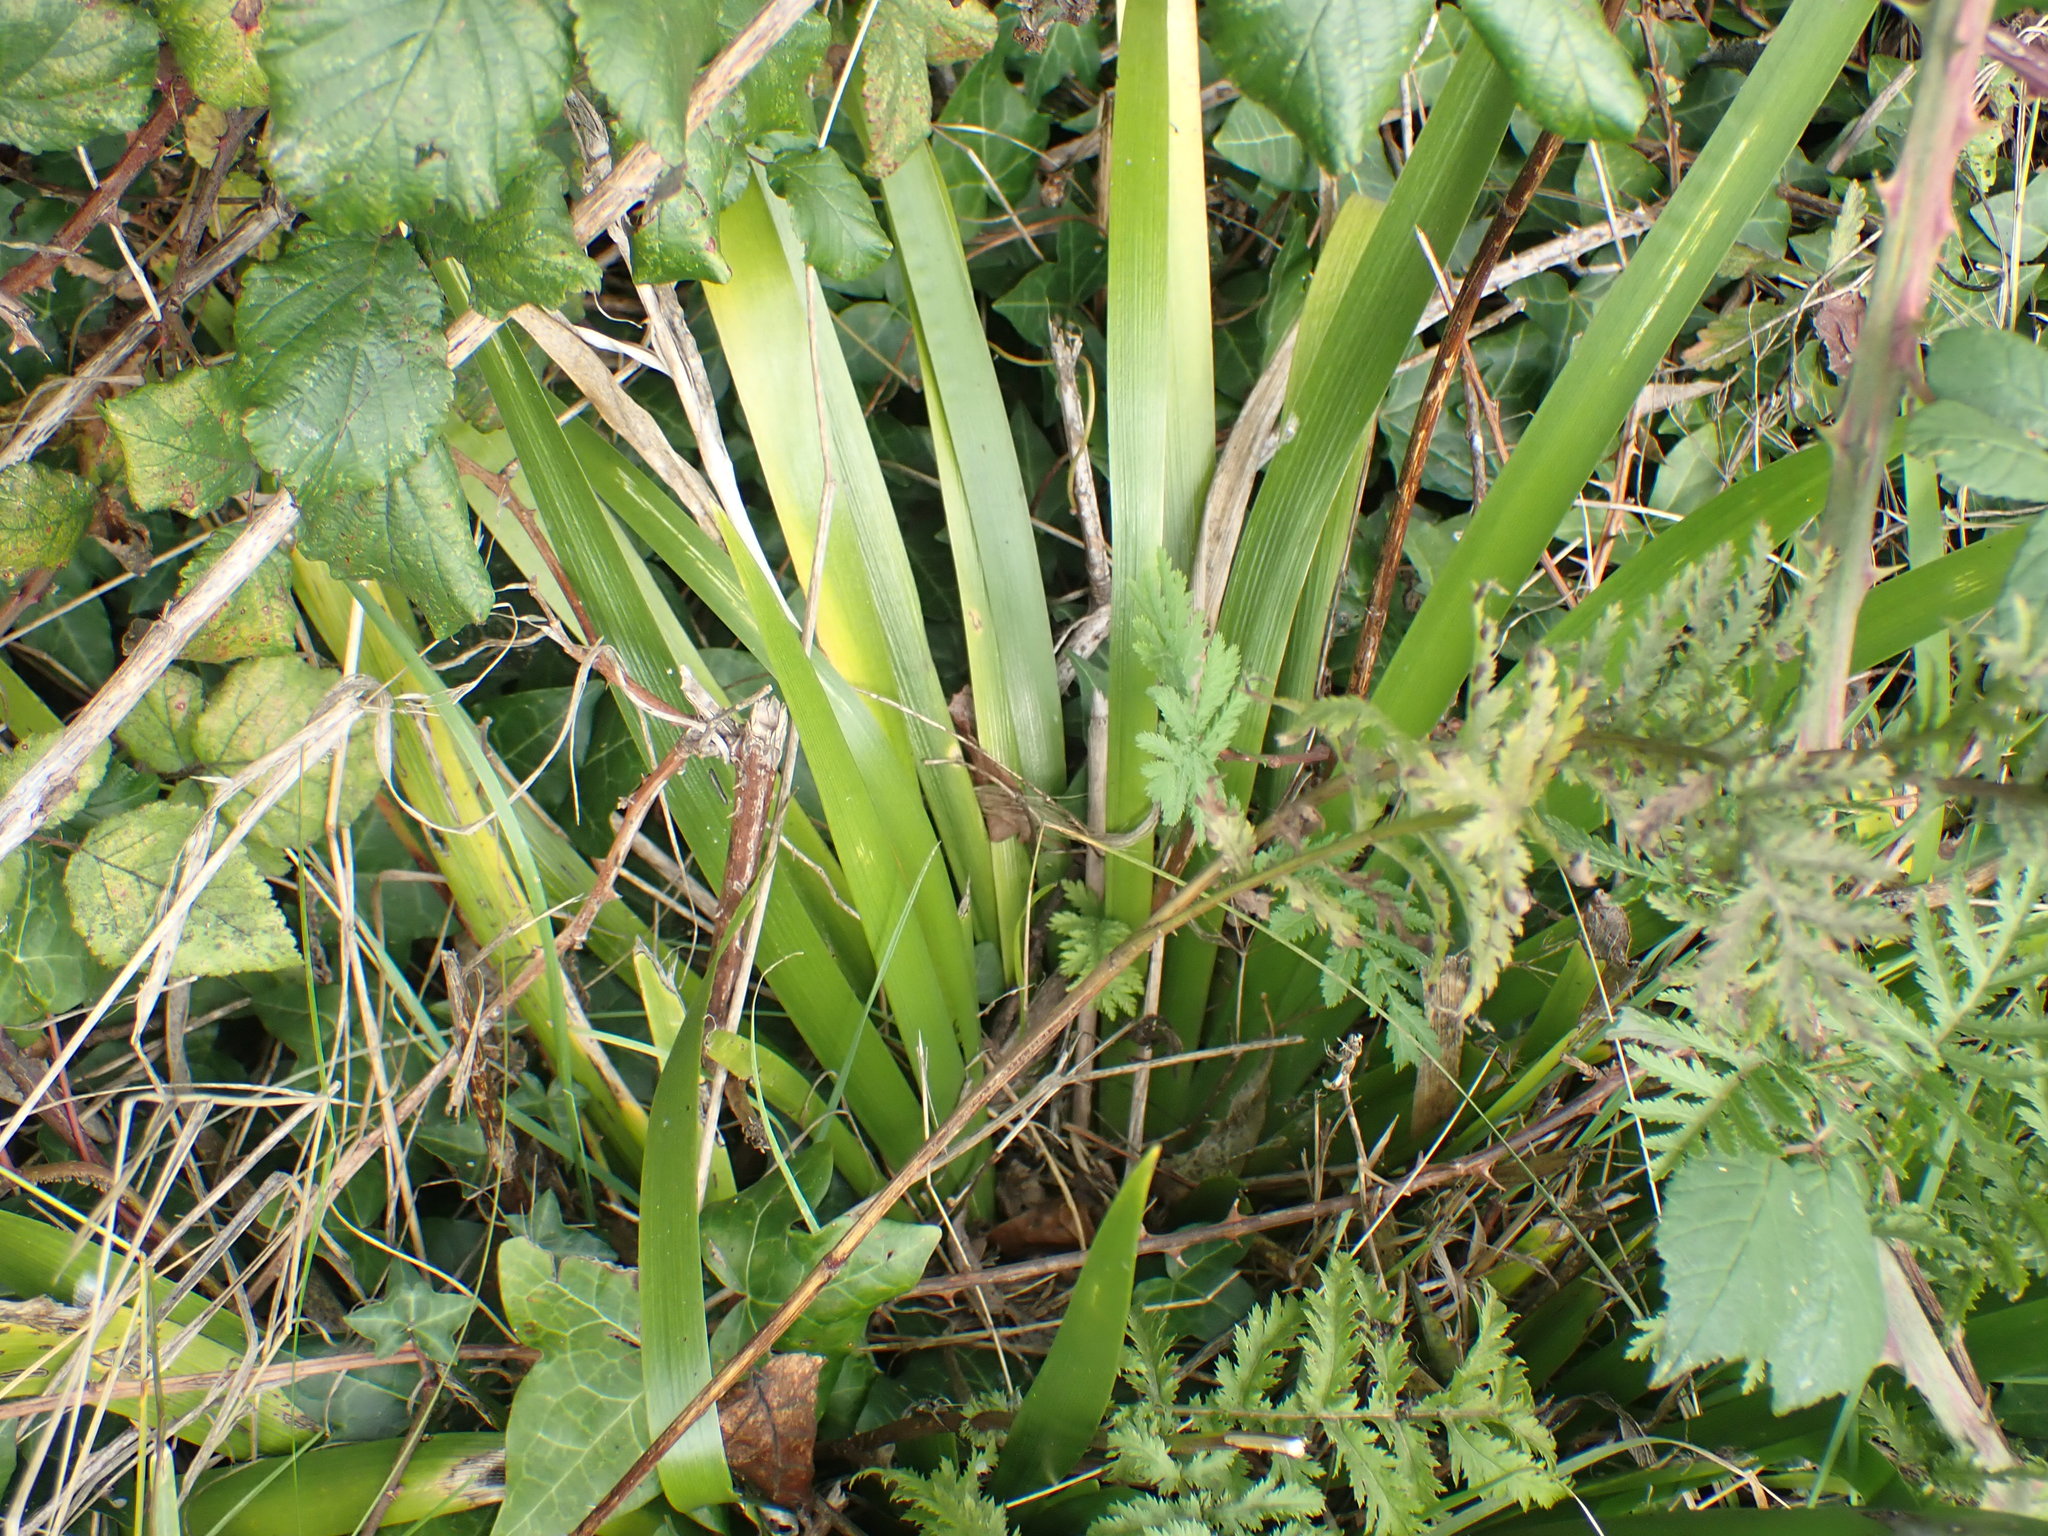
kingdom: Plantae
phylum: Tracheophyta
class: Liliopsida
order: Asparagales
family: Iridaceae
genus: Iris
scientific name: Iris foetidissima
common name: Stinking iris
